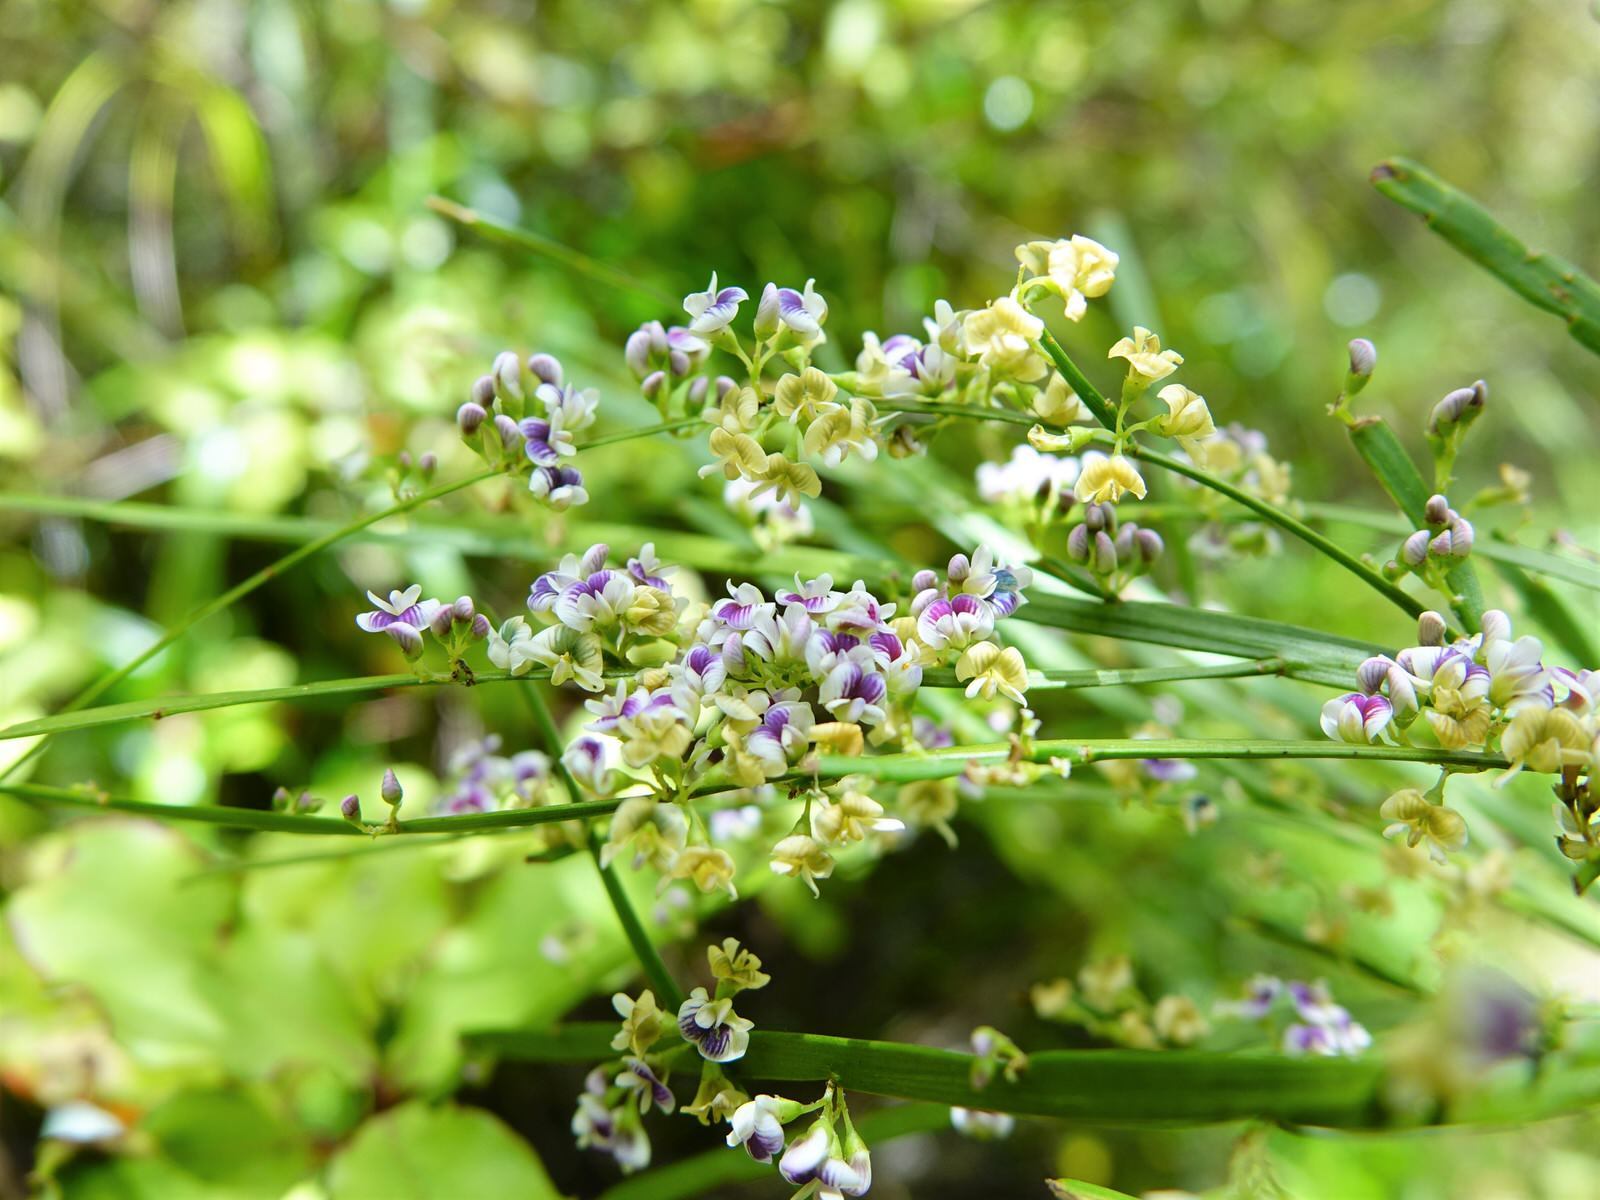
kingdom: Plantae
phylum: Tracheophyta
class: Magnoliopsida
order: Fabales
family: Fabaceae
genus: Carmichaelia
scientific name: Carmichaelia australis
